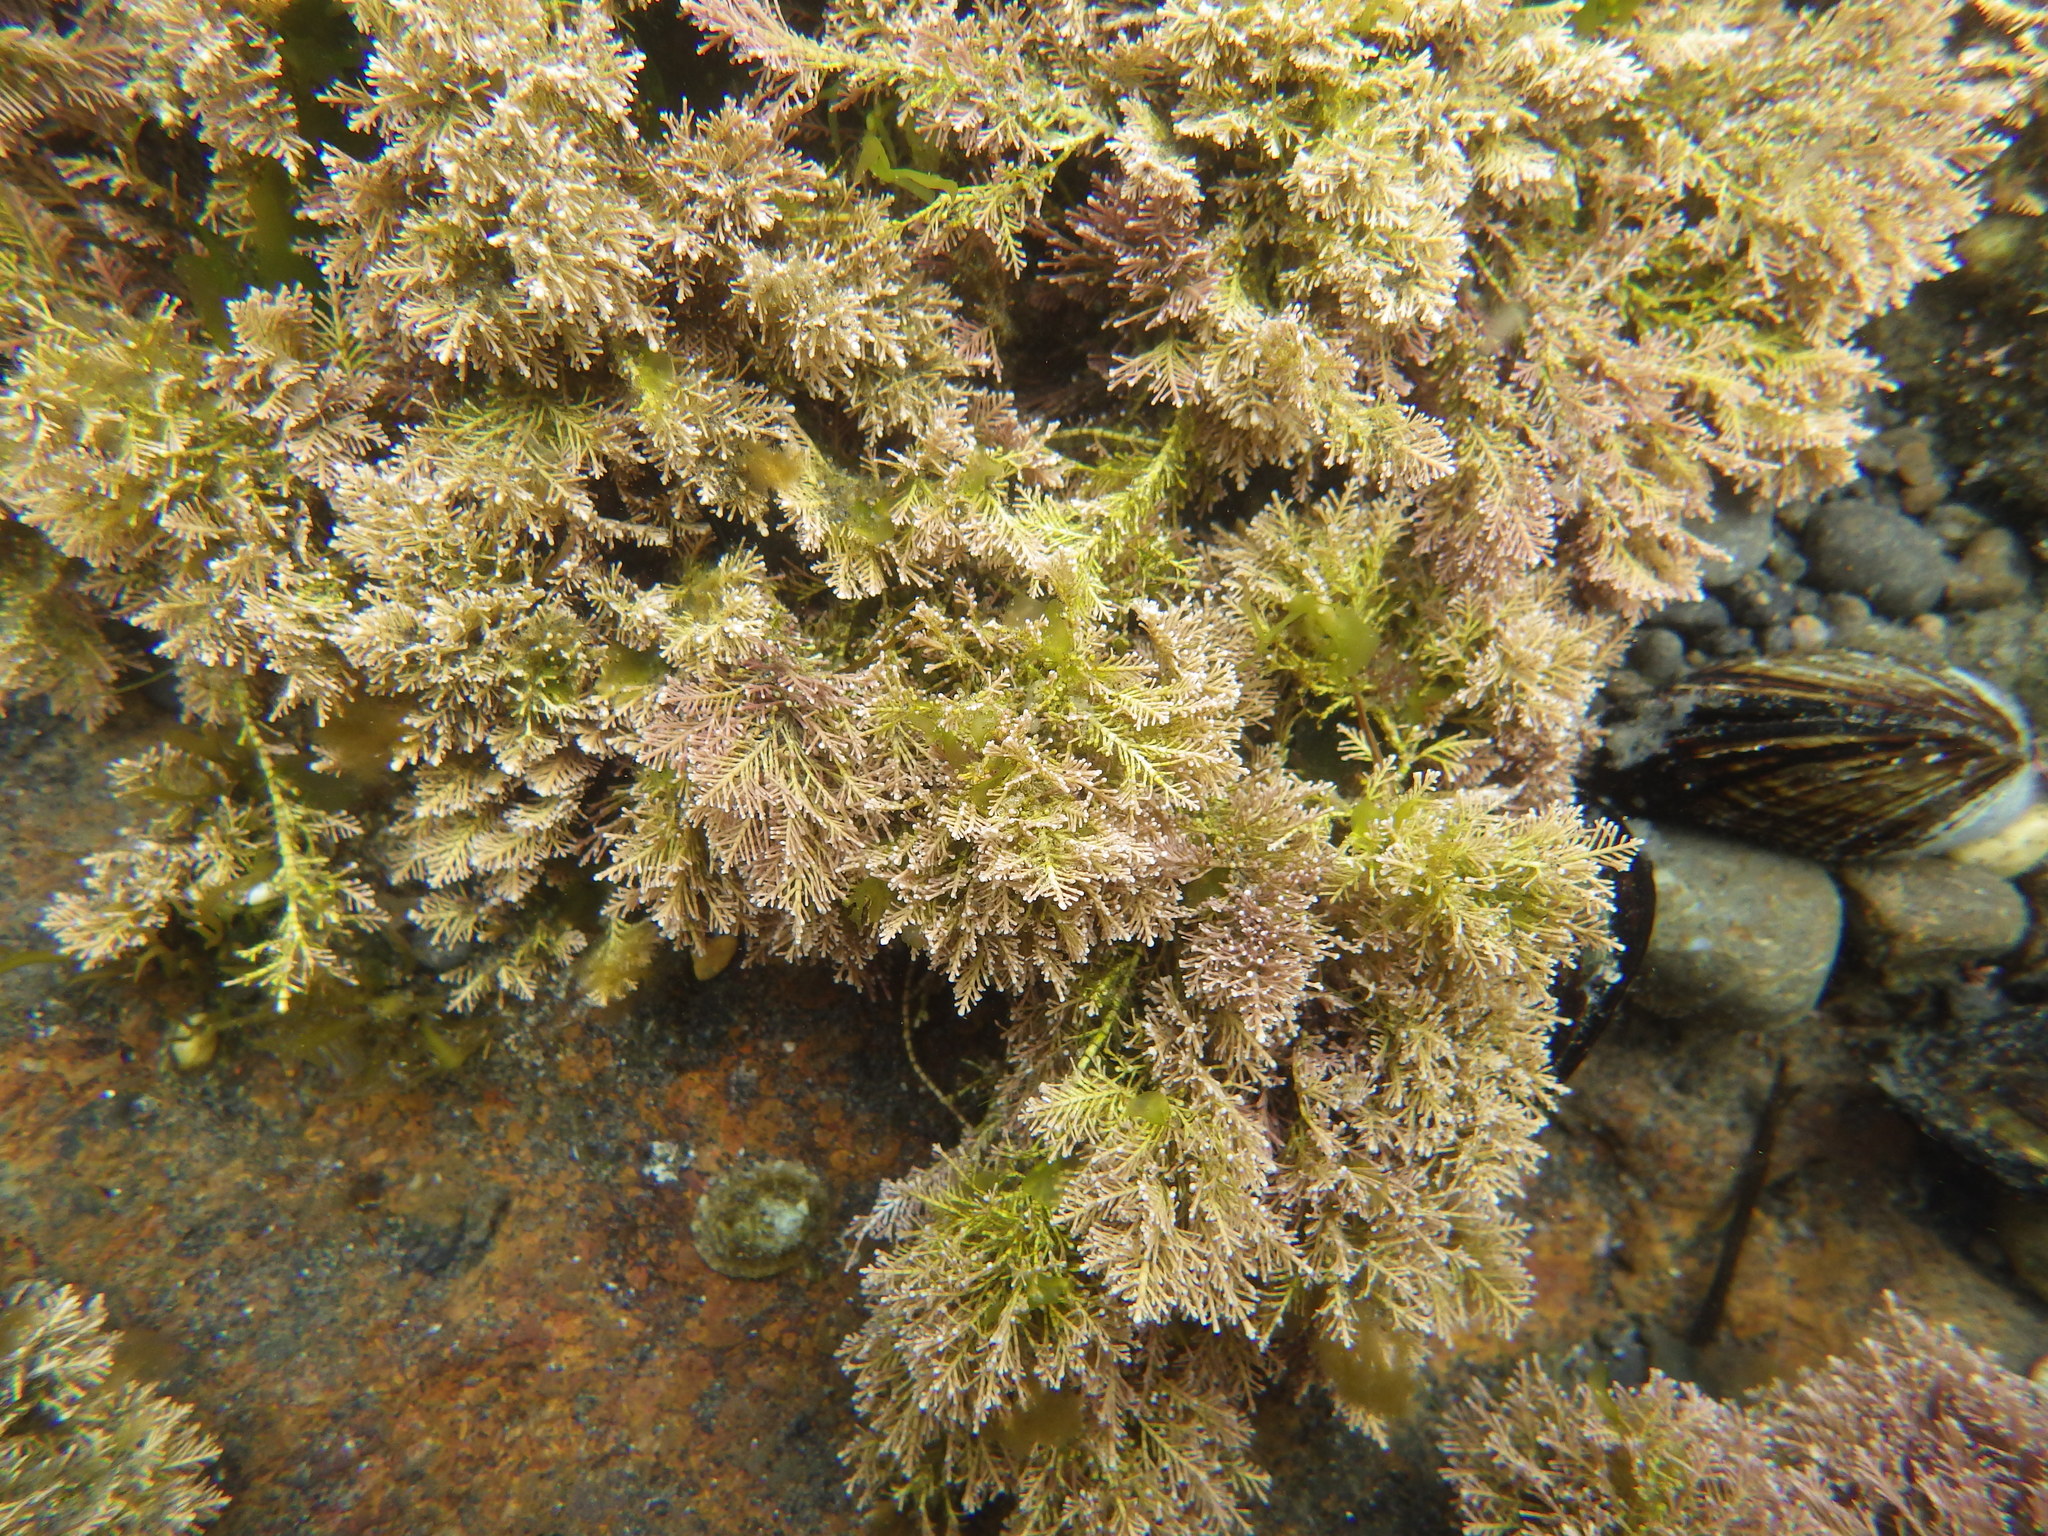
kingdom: Plantae
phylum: Rhodophyta
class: Florideophyceae
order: Corallinales
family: Corallinaceae
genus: Corallina
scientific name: Corallina officinalis
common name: Coral weed
